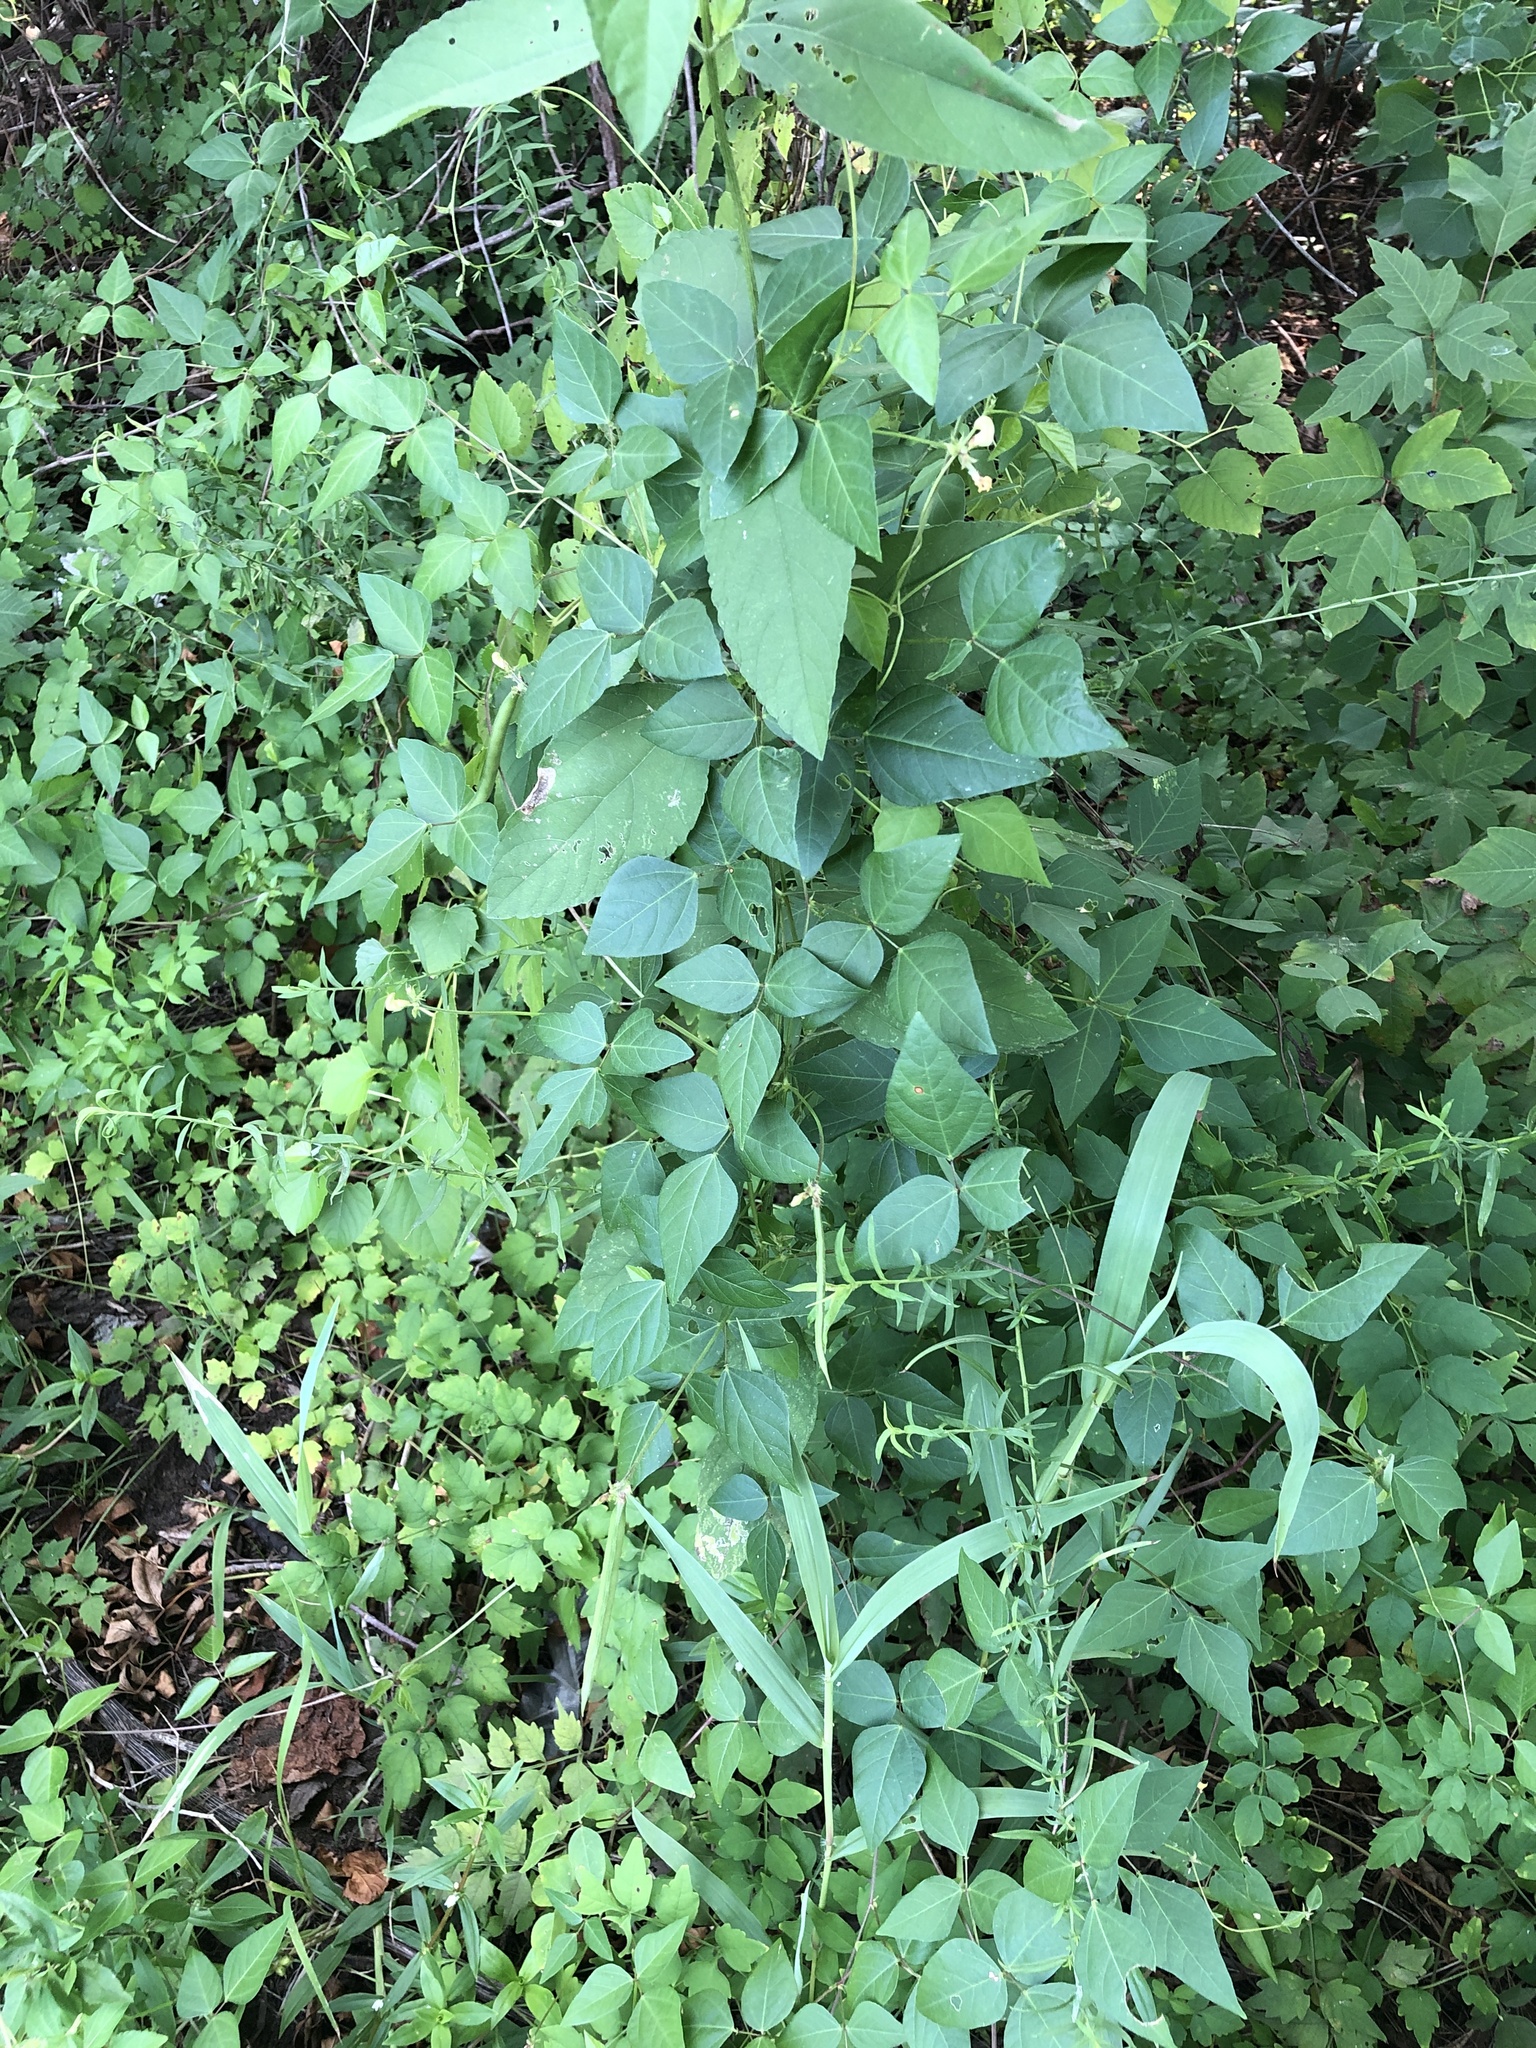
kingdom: Plantae
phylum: Tracheophyta
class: Magnoliopsida
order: Fabales
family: Fabaceae
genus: Strophostyles
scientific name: Strophostyles helvola
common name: Trailing wild bean
